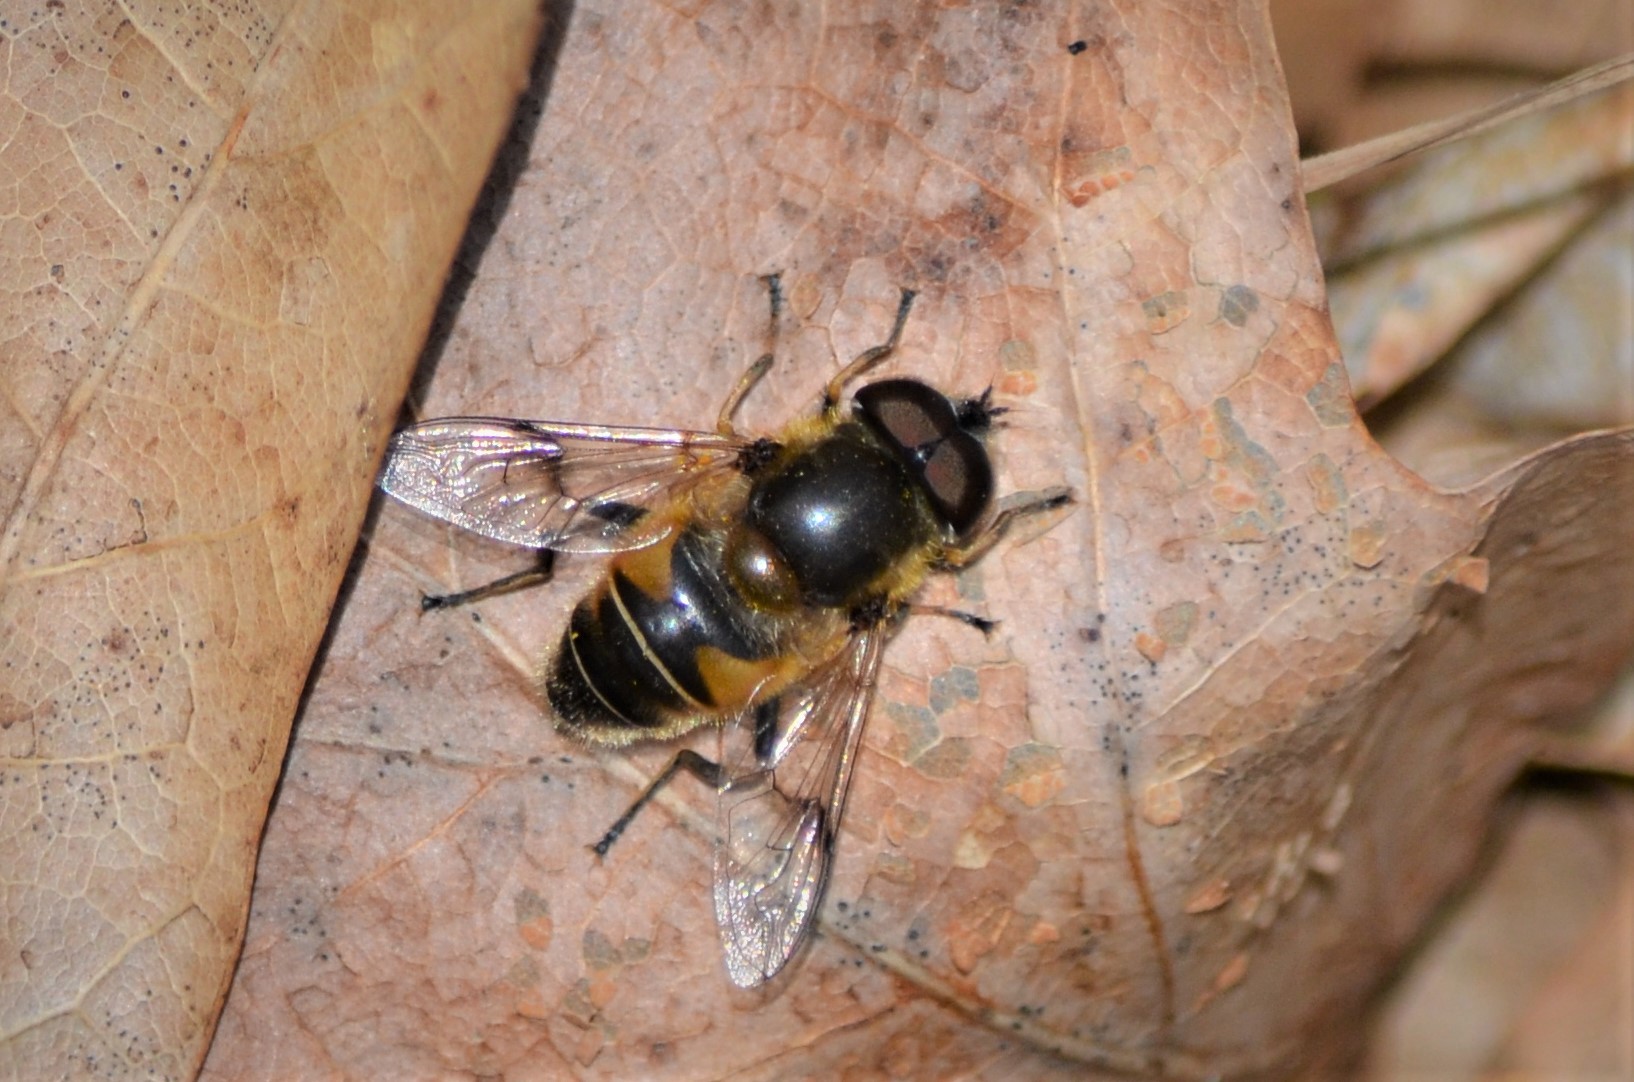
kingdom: Animalia
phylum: Arthropoda
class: Insecta
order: Diptera
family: Syrphidae
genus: Eristalis
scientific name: Eristalis rupium
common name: Hover fly
